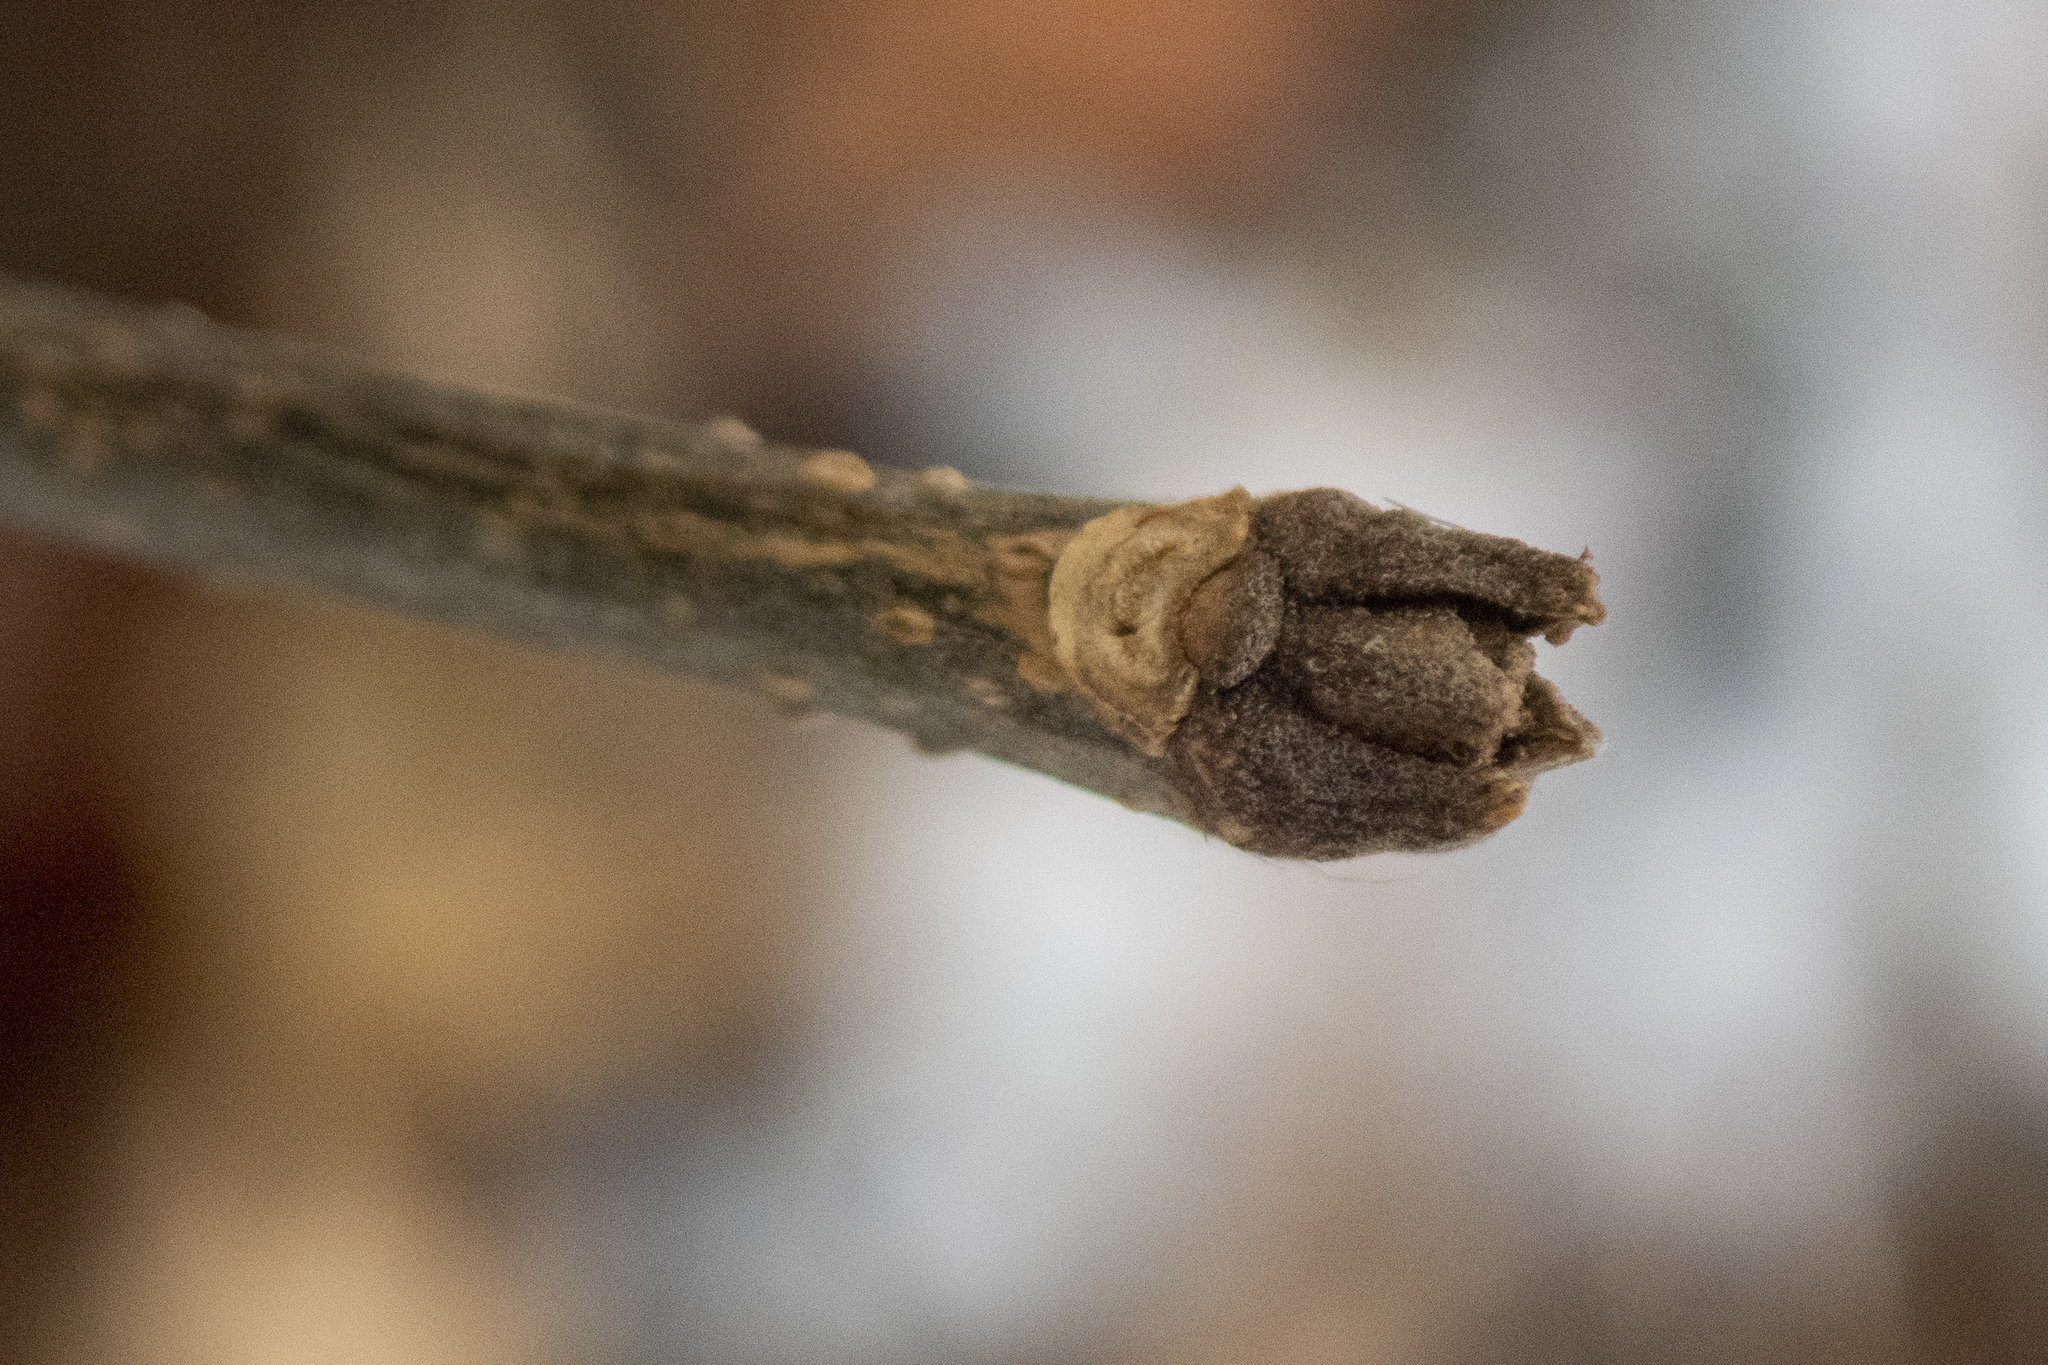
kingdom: Plantae
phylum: Tracheophyta
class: Magnoliopsida
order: Lamiales
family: Oleaceae
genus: Fraxinus
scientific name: Fraxinus americana
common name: White ash
